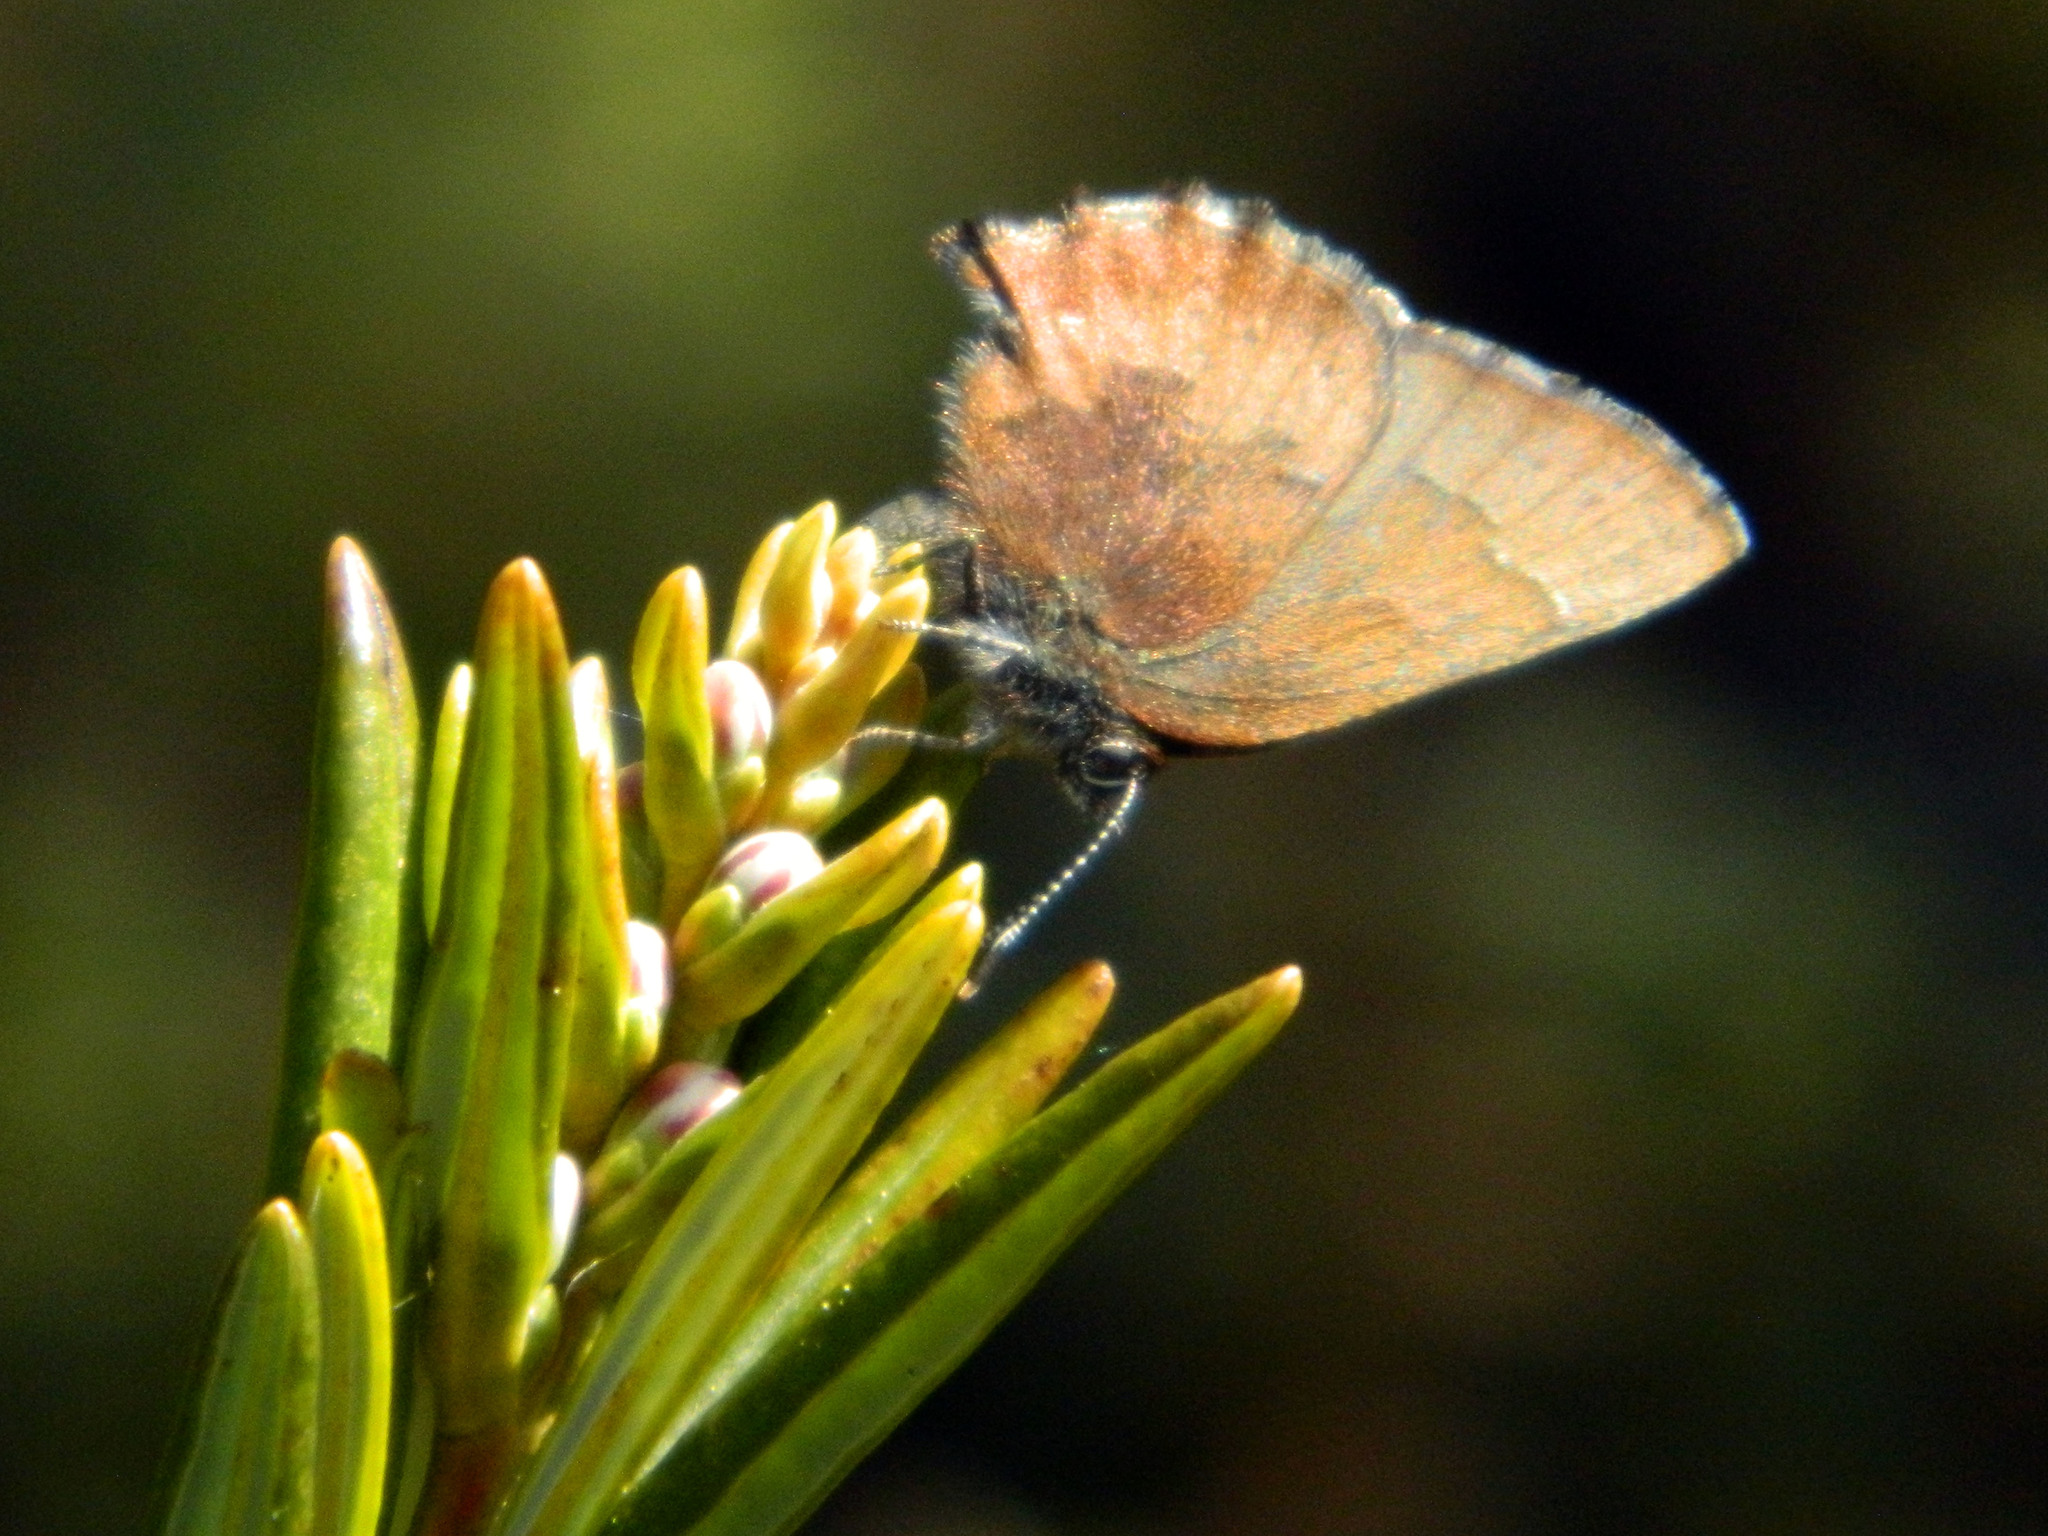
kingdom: Animalia
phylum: Arthropoda
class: Insecta
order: Lepidoptera
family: Lycaenidae
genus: Incisalia
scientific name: Incisalia irioides
